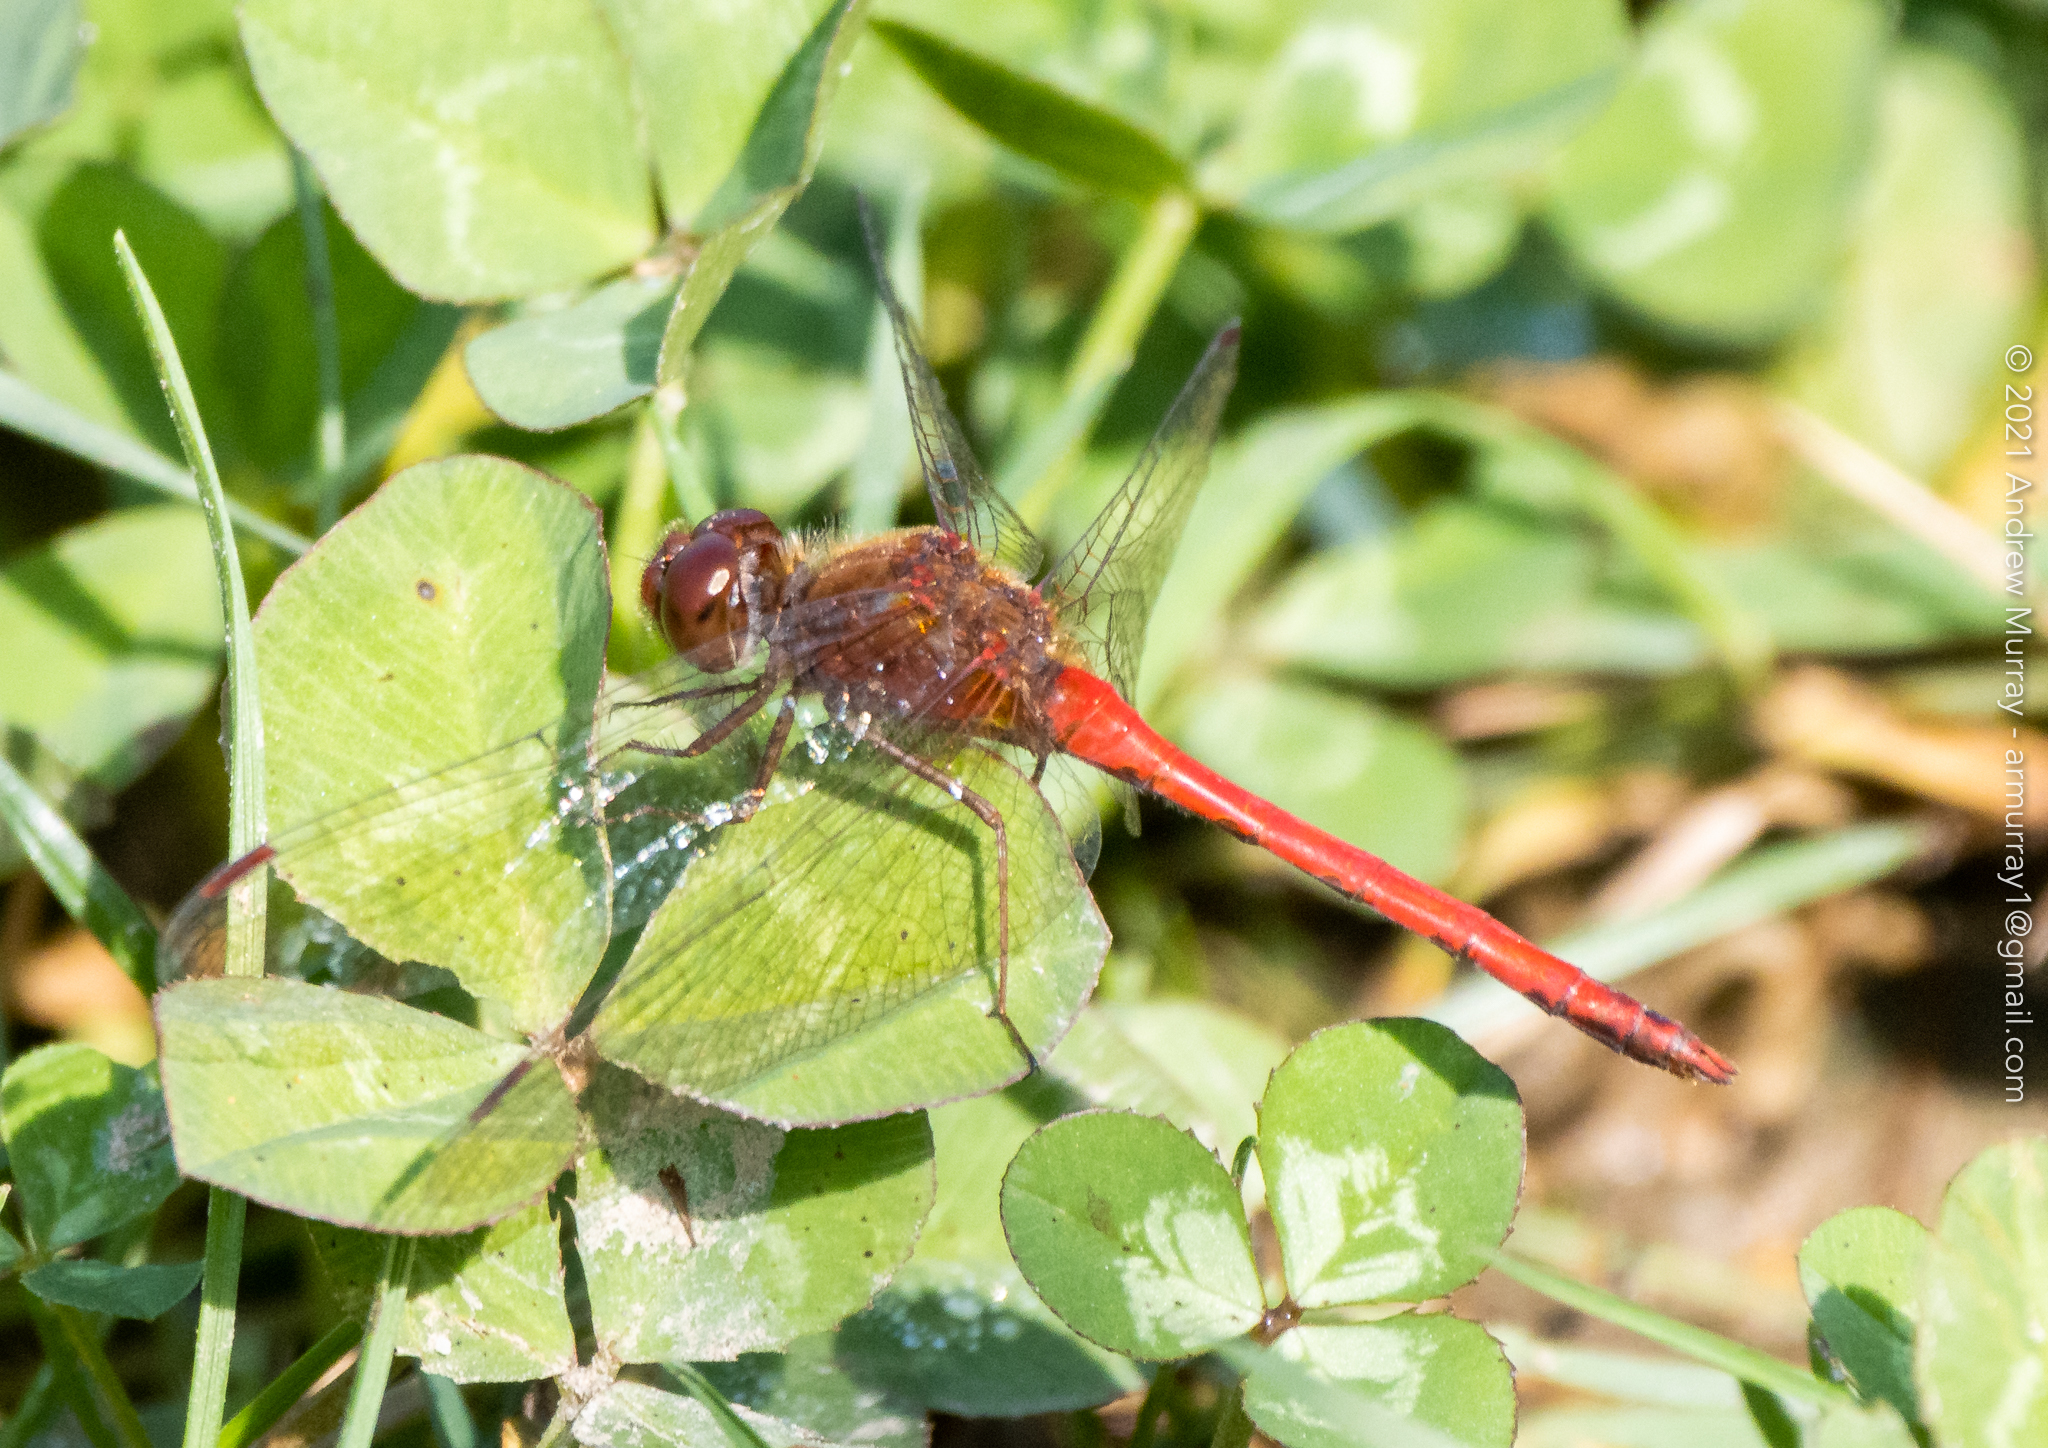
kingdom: Animalia
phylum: Arthropoda
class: Insecta
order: Odonata
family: Libellulidae
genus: Sympetrum
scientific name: Sympetrum vicinum
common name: Autumn meadowhawk
